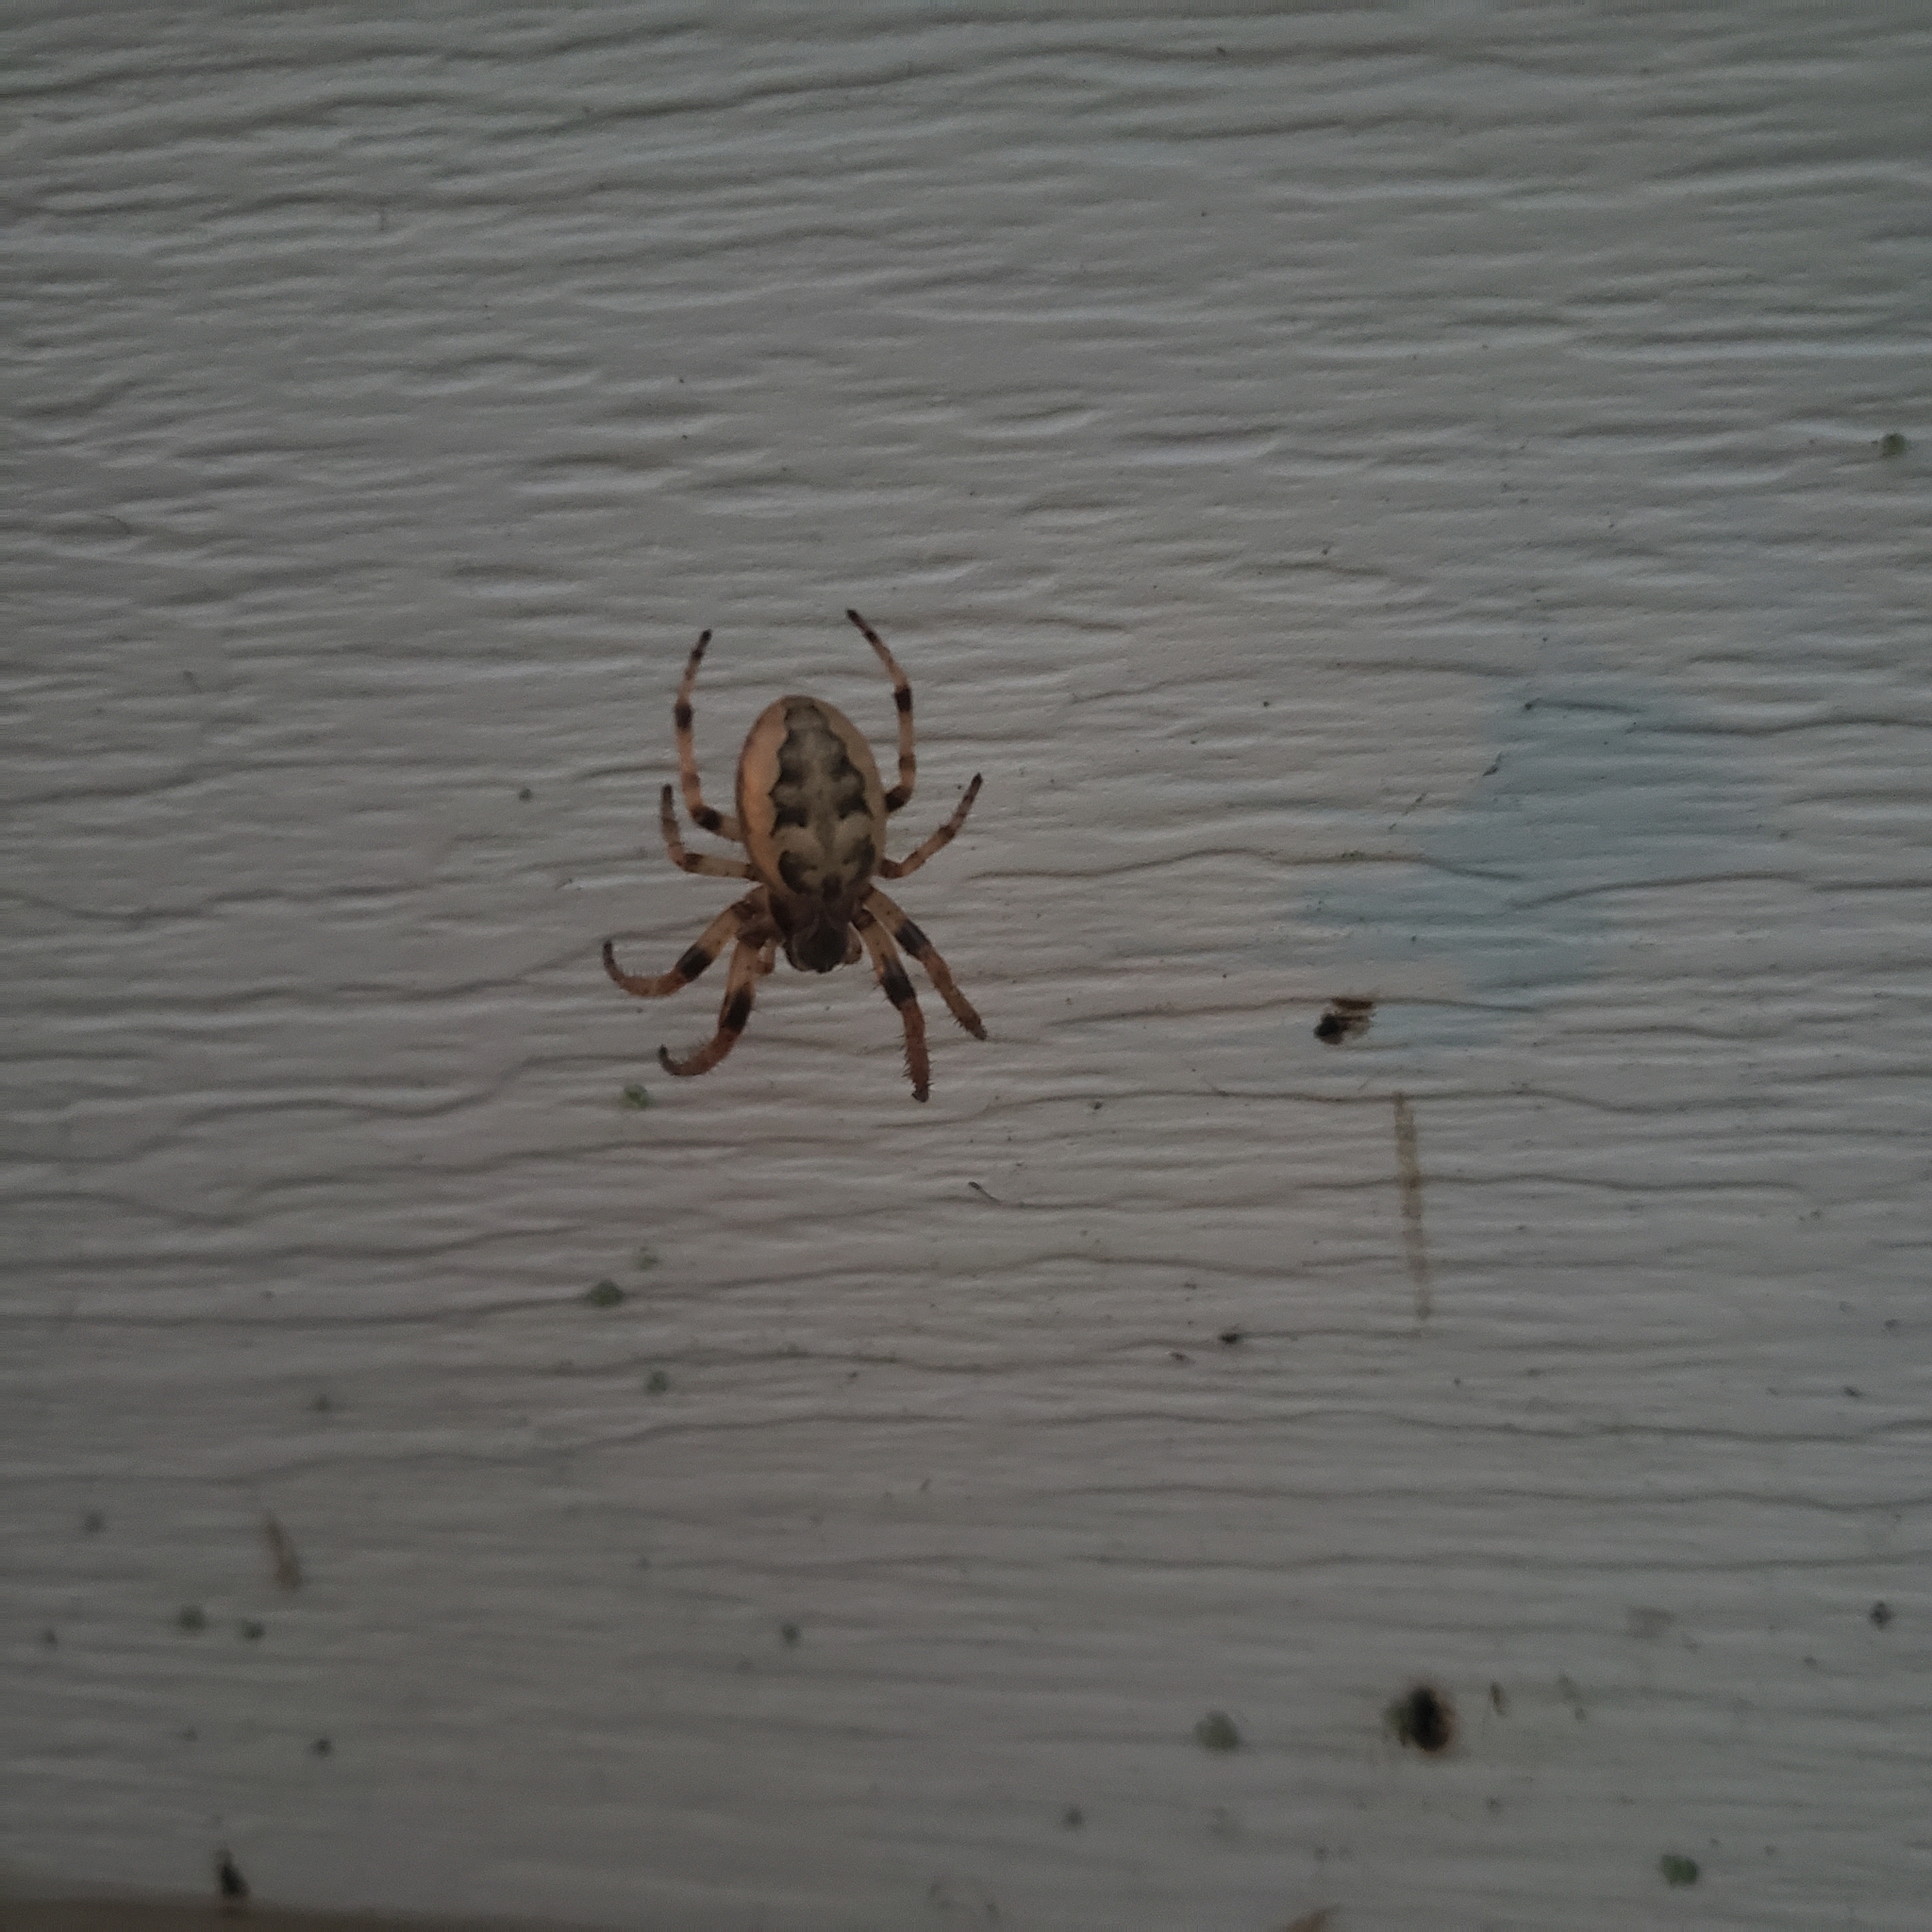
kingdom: Animalia
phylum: Arthropoda
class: Arachnida
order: Araneae
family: Araneidae
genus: Larinioides
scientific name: Larinioides cornutus
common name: Furrow orbweaver
